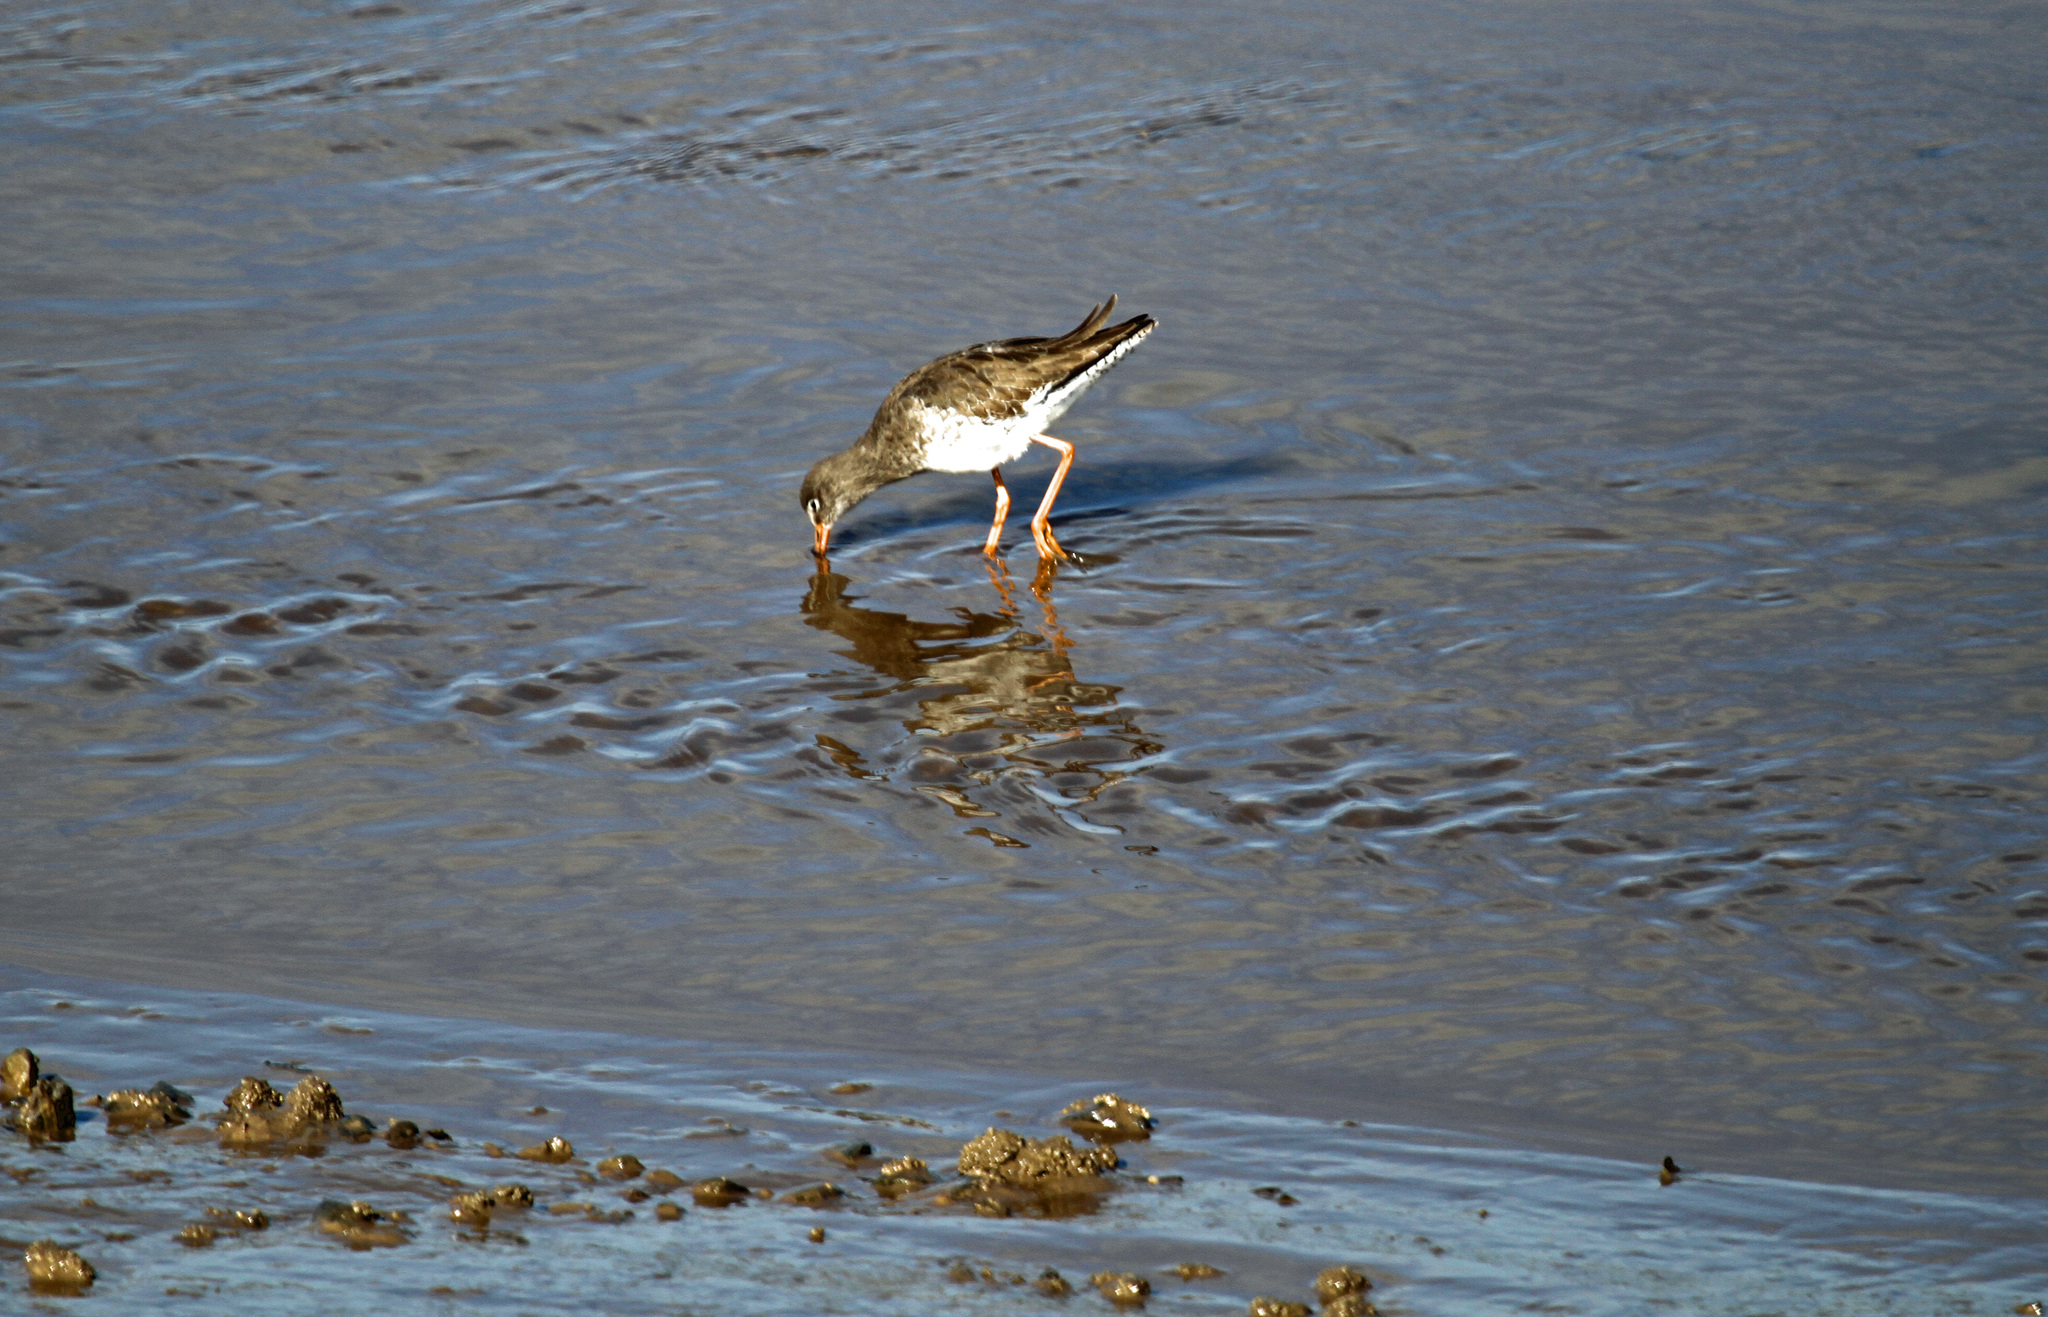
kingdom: Animalia
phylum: Chordata
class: Aves
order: Charadriiformes
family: Scolopacidae
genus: Tringa
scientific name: Tringa totanus
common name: Common redshank
